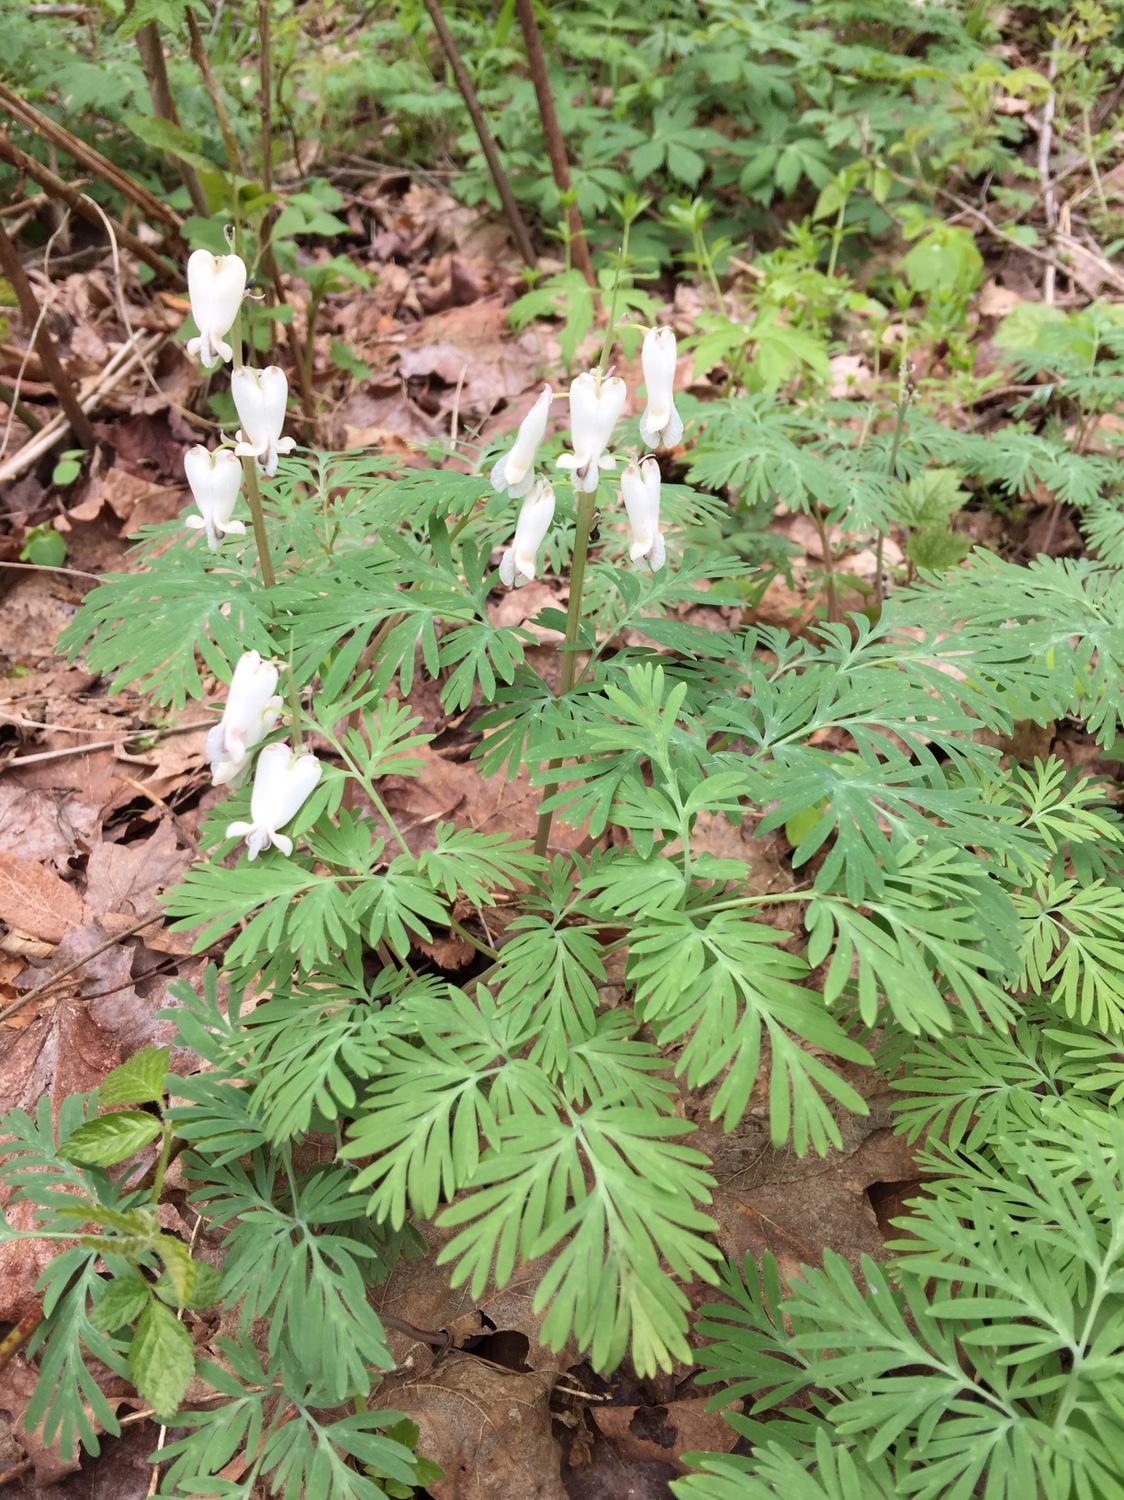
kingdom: Plantae
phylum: Tracheophyta
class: Magnoliopsida
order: Ranunculales
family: Papaveraceae
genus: Dicentra
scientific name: Dicentra canadensis
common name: Squirrel-corn
